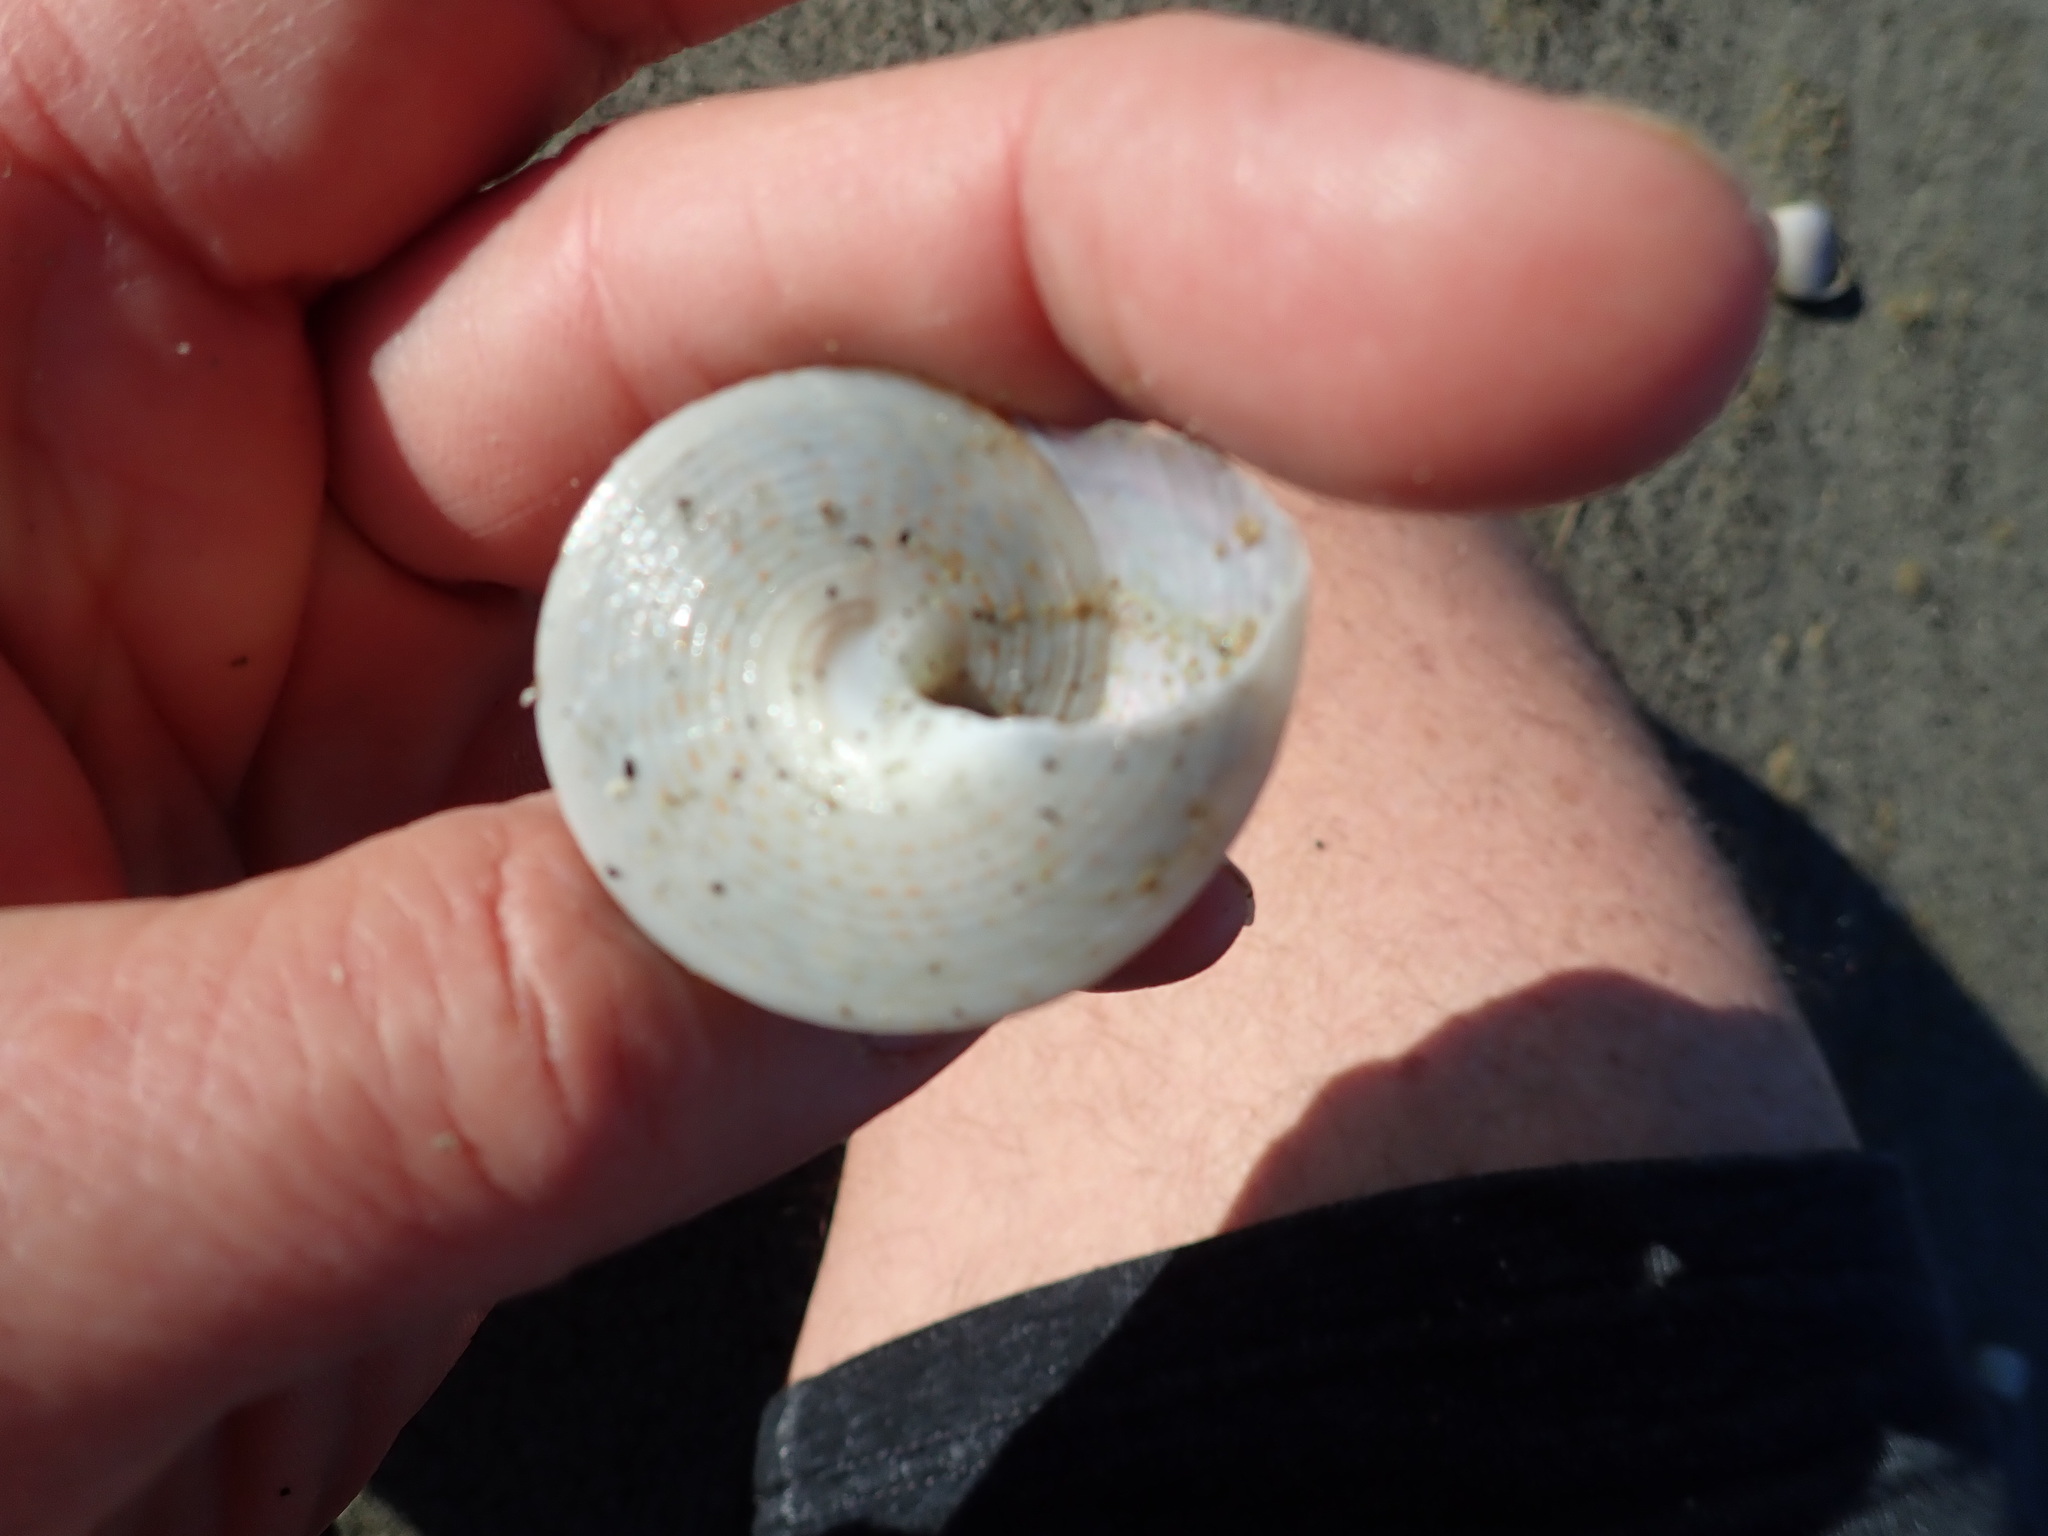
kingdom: Animalia
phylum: Mollusca
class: Gastropoda
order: Trochida
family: Calliostomatidae
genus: Maurea
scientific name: Maurea selecta
